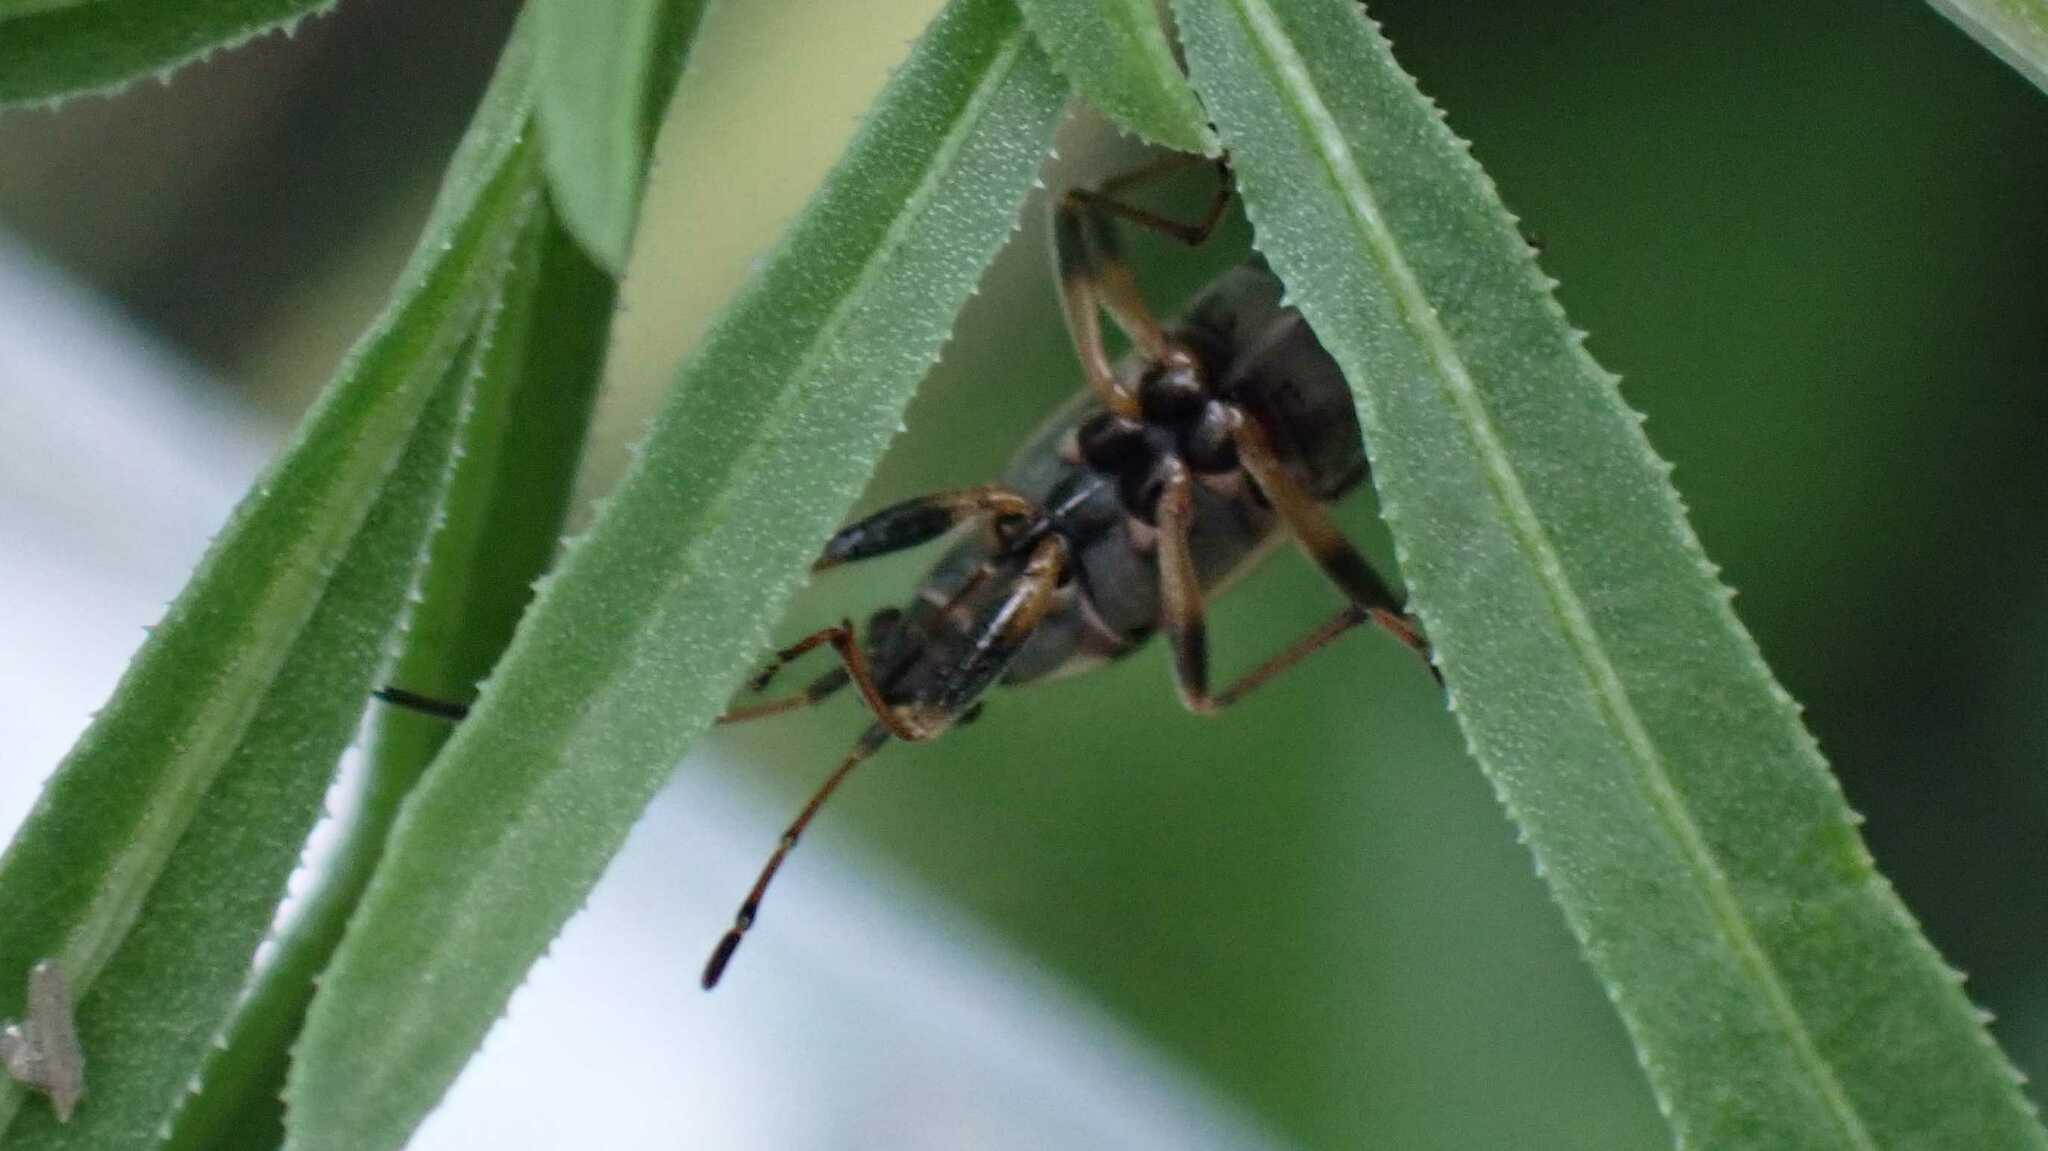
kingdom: Animalia
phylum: Arthropoda
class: Insecta
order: Hemiptera
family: Rhyparochromidae
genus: Beosus
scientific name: Beosus maritimus
